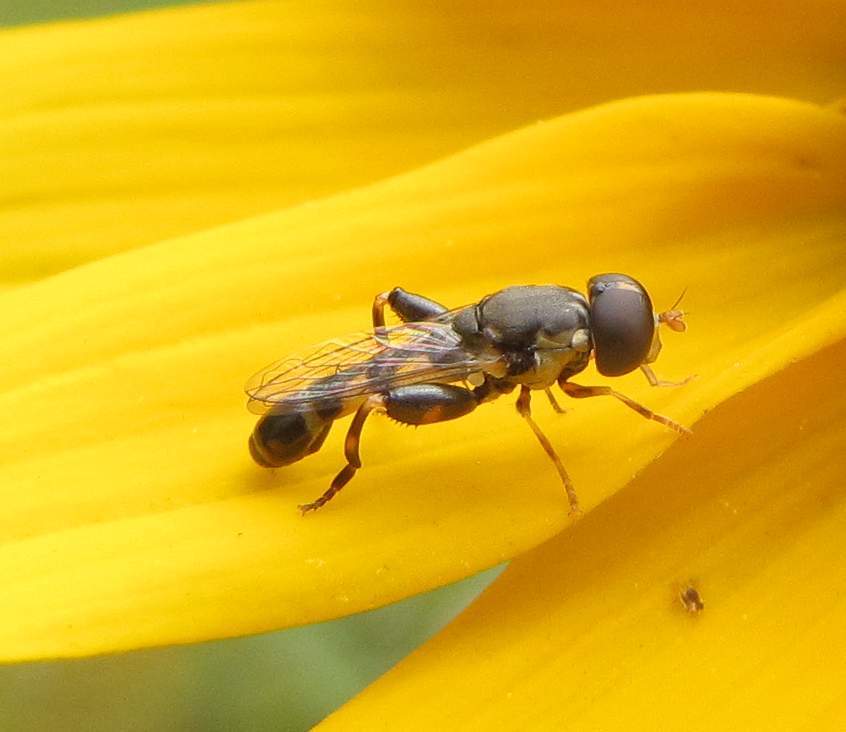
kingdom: Animalia
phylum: Arthropoda
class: Insecta
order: Diptera
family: Syrphidae
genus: Syritta
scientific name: Syritta pipiens
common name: Hover fly
